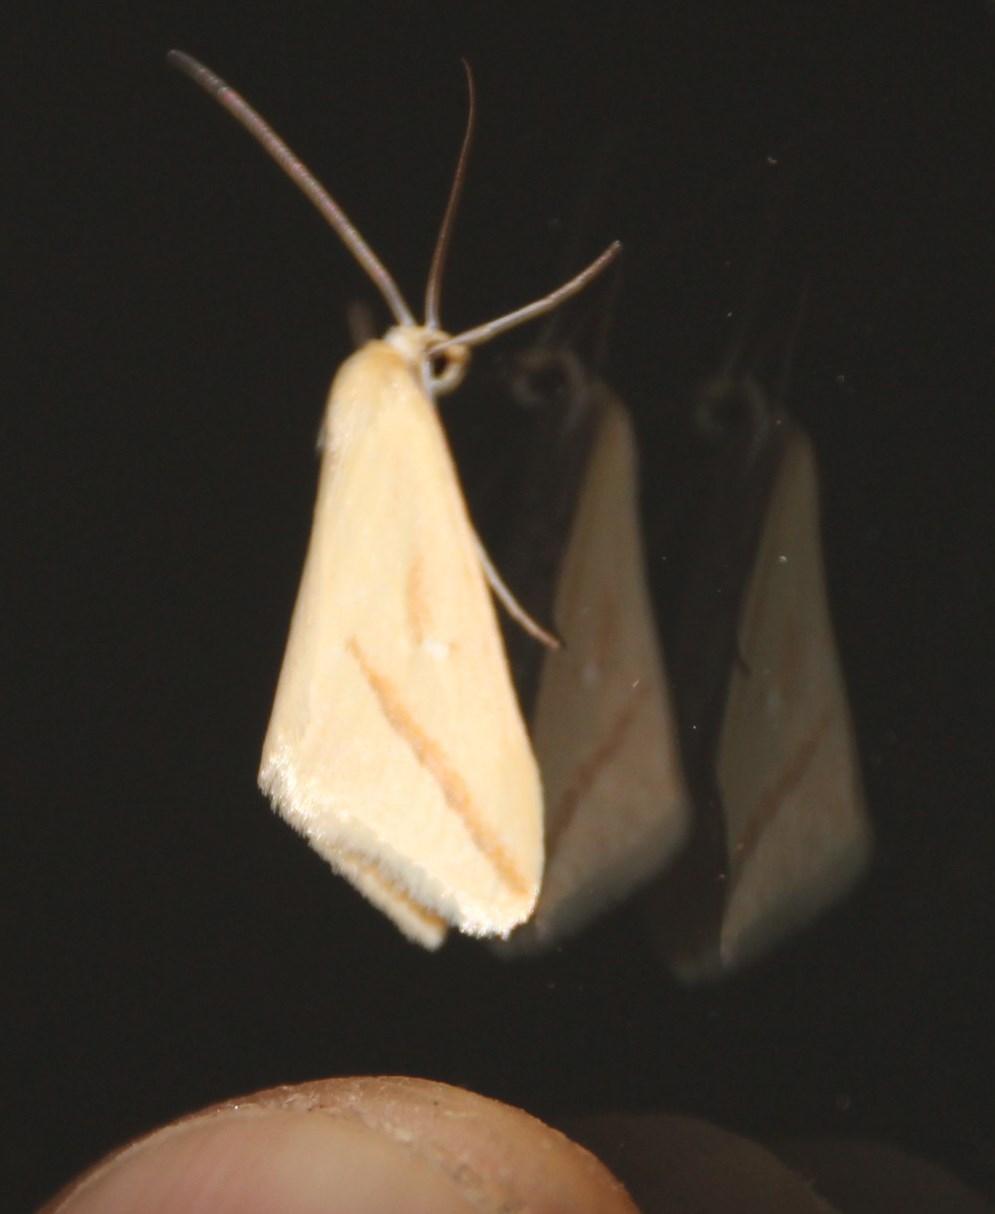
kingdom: Animalia
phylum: Arthropoda
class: Insecta
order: Lepidoptera
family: Geometridae
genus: Rhodometra
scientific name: Rhodometra participata
